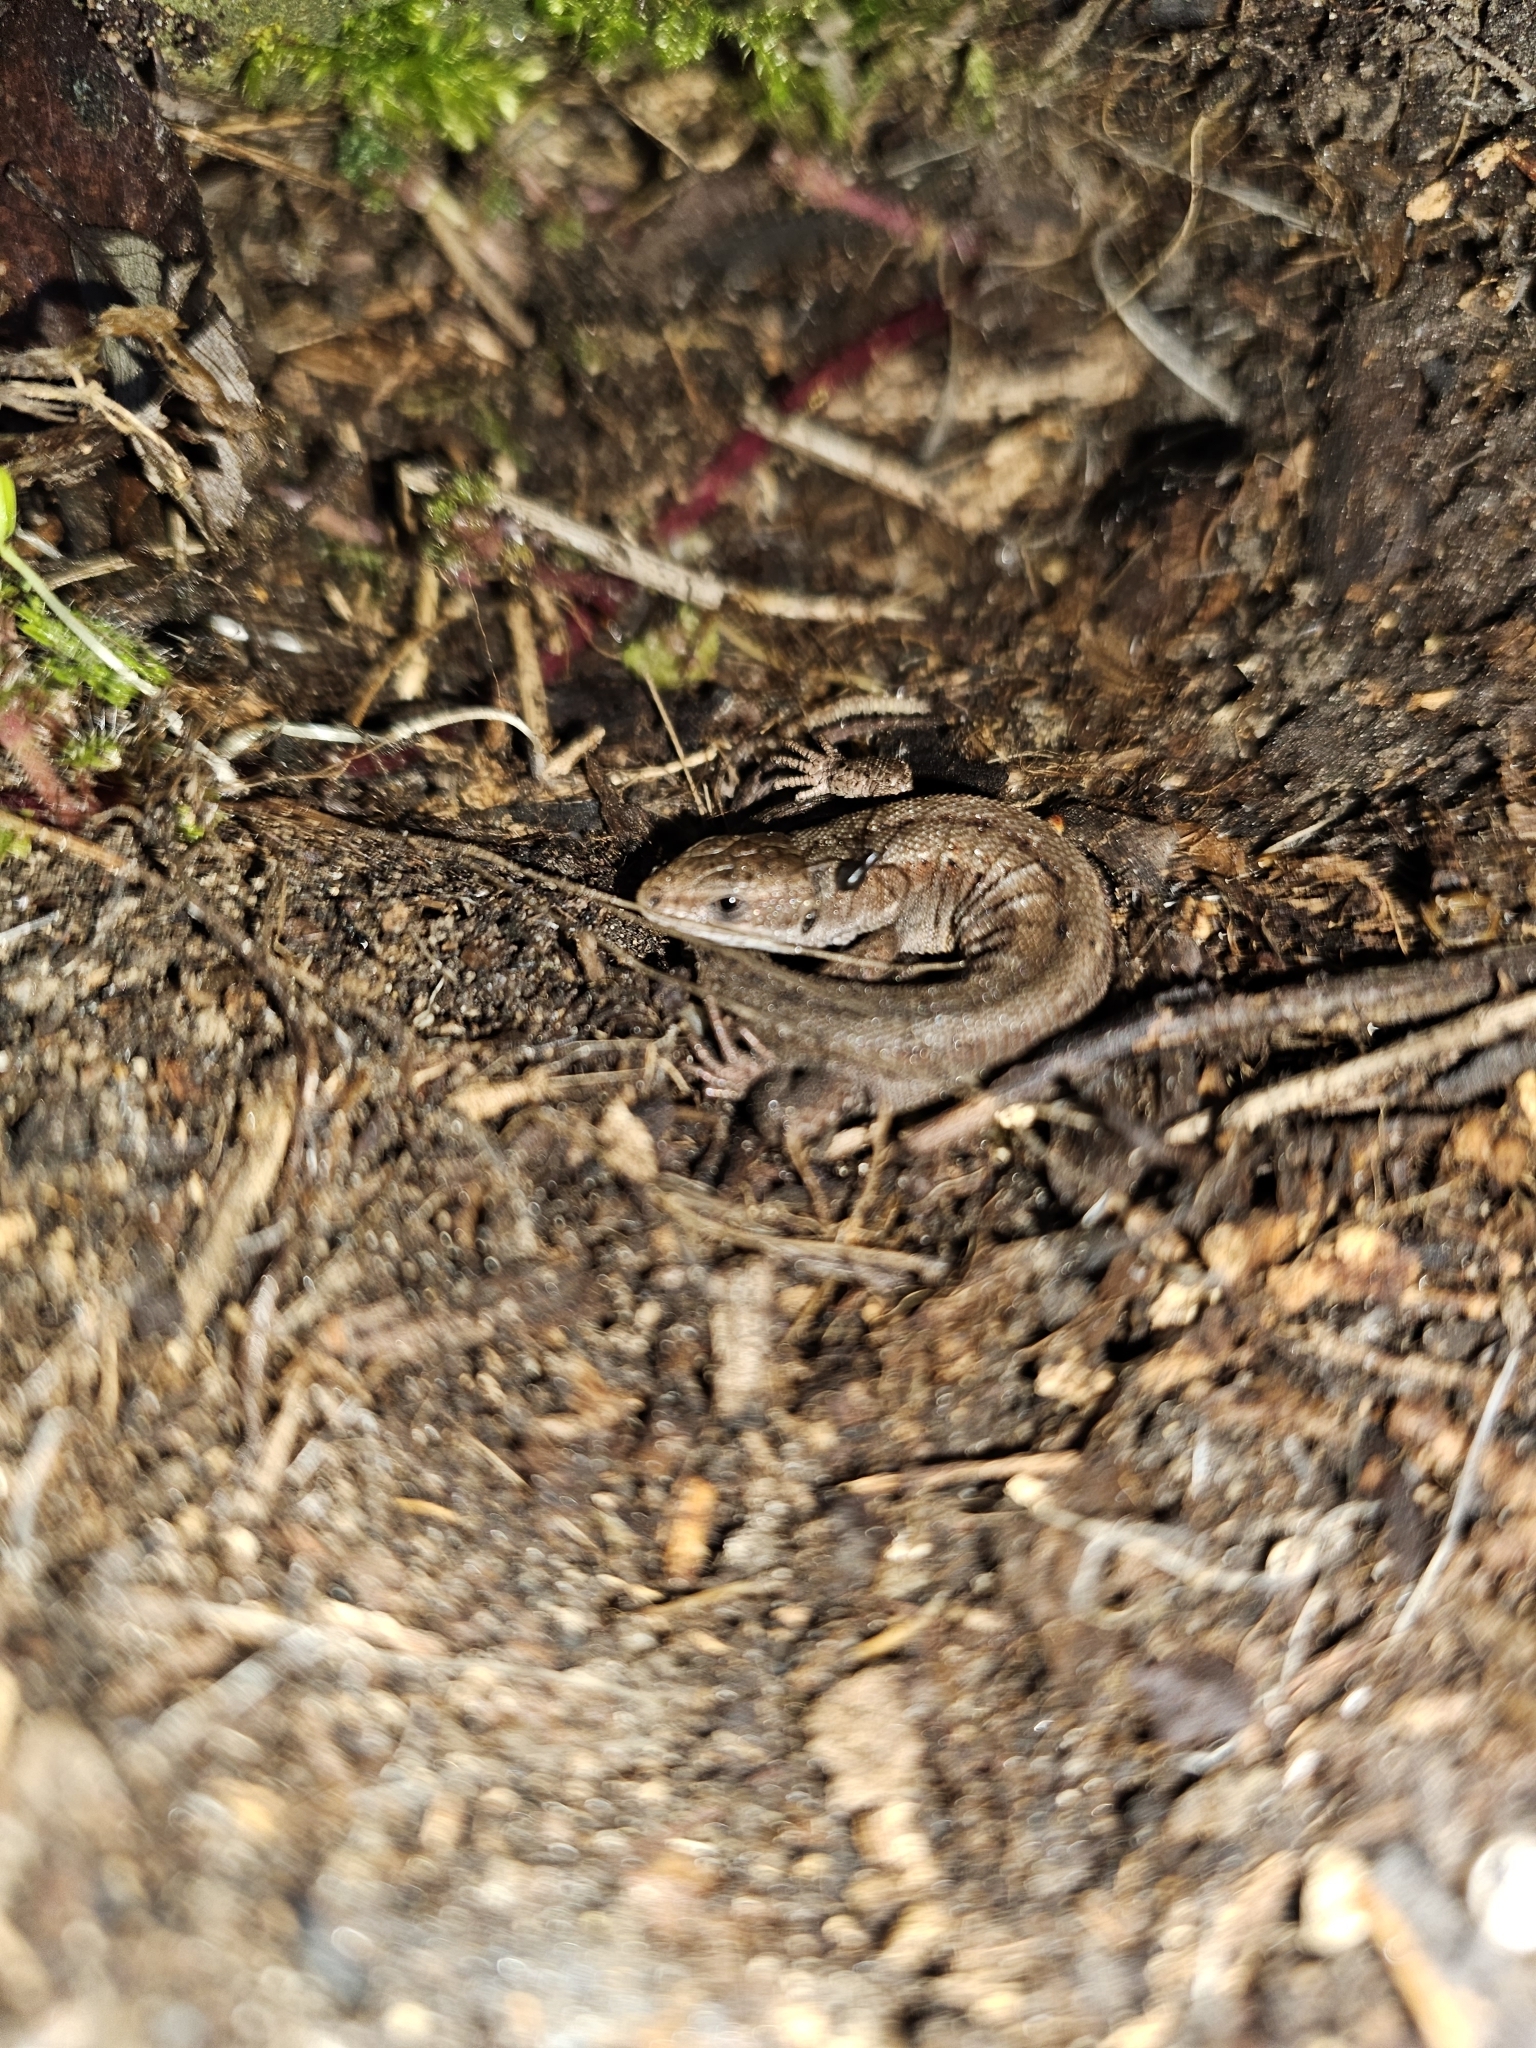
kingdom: Animalia
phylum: Chordata
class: Squamata
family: Lacertidae
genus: Zootoca
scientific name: Zootoca vivipara
